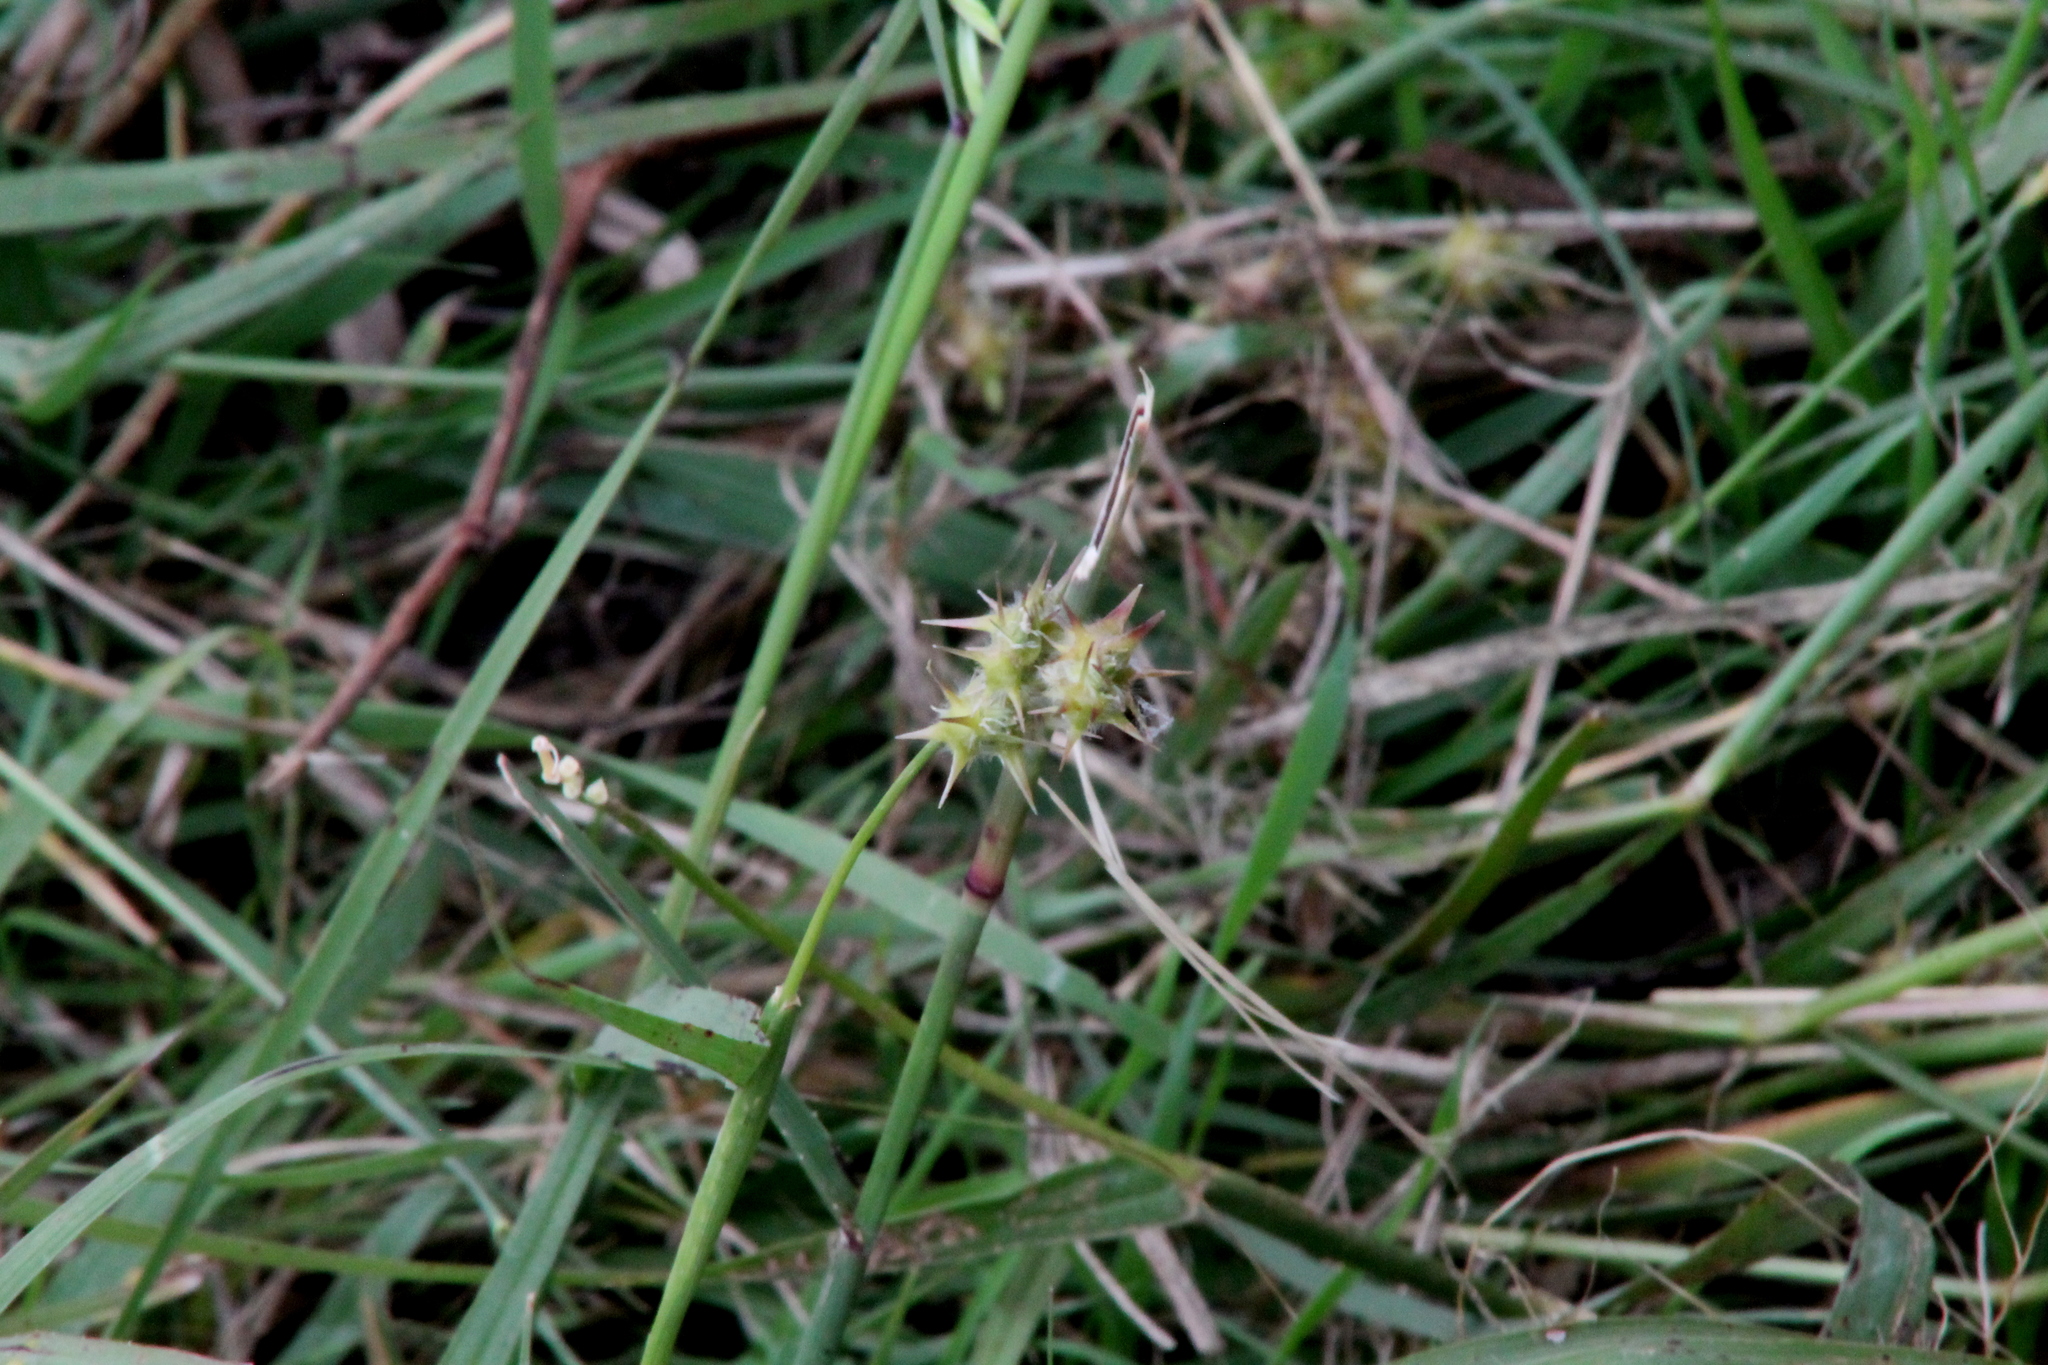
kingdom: Plantae
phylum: Tracheophyta
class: Liliopsida
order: Poales
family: Poaceae
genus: Cenchrus
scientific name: Cenchrus longispinus
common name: Mat sandbur
